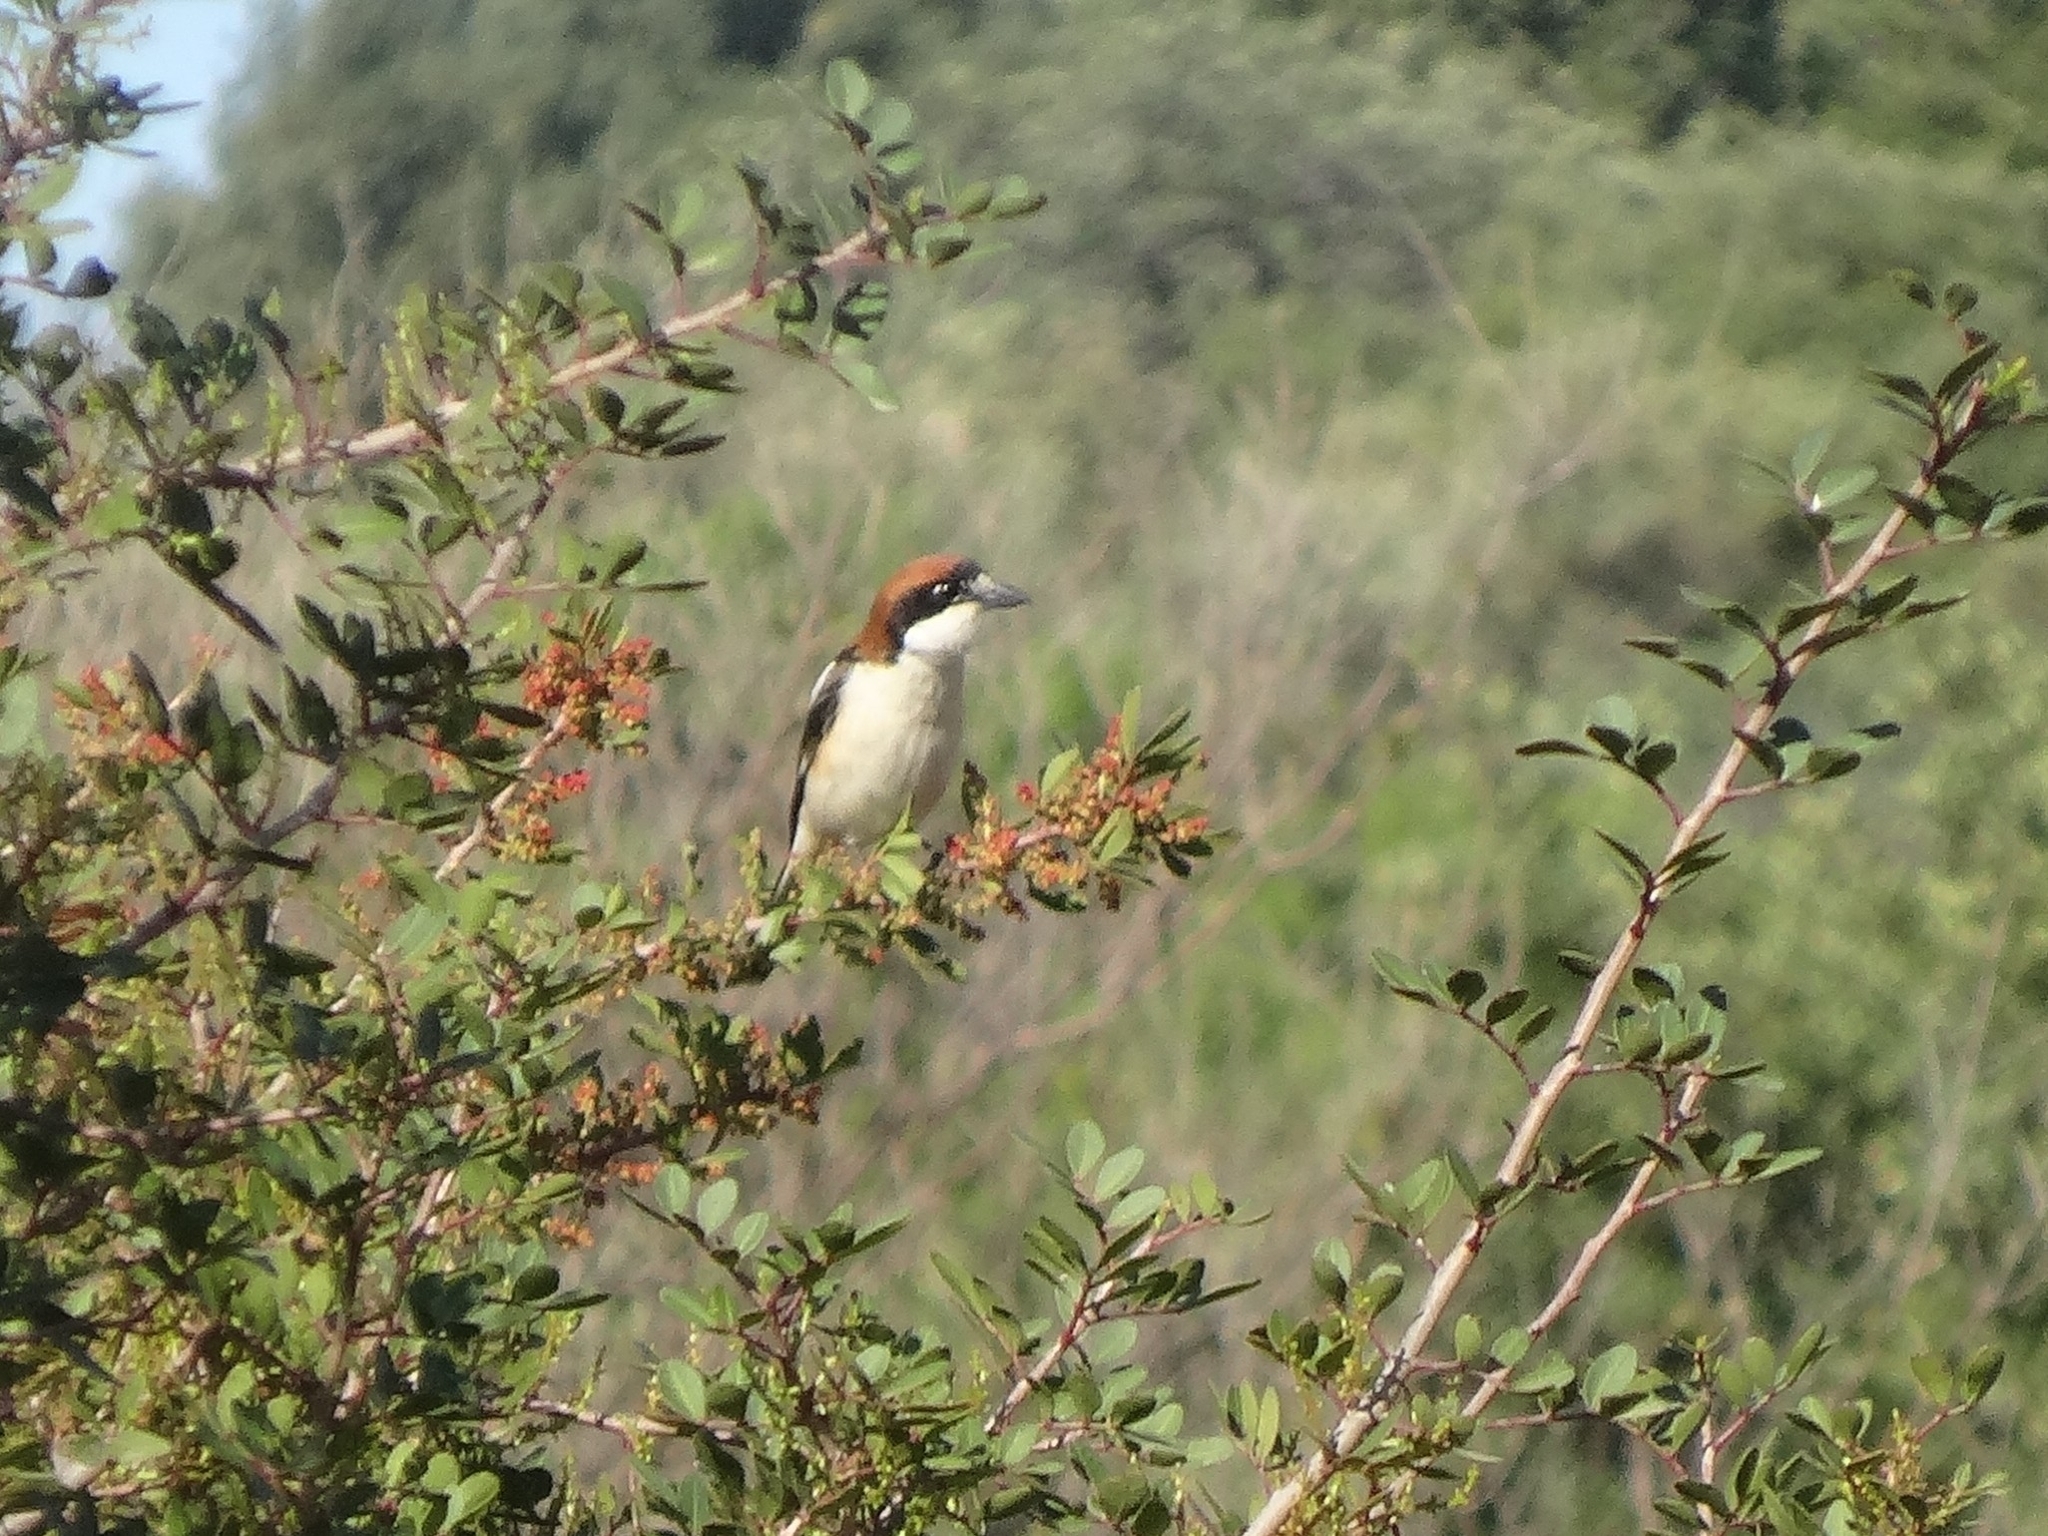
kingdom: Animalia
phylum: Chordata
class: Aves
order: Passeriformes
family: Laniidae
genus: Lanius
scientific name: Lanius senator
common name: Woodchat shrike
